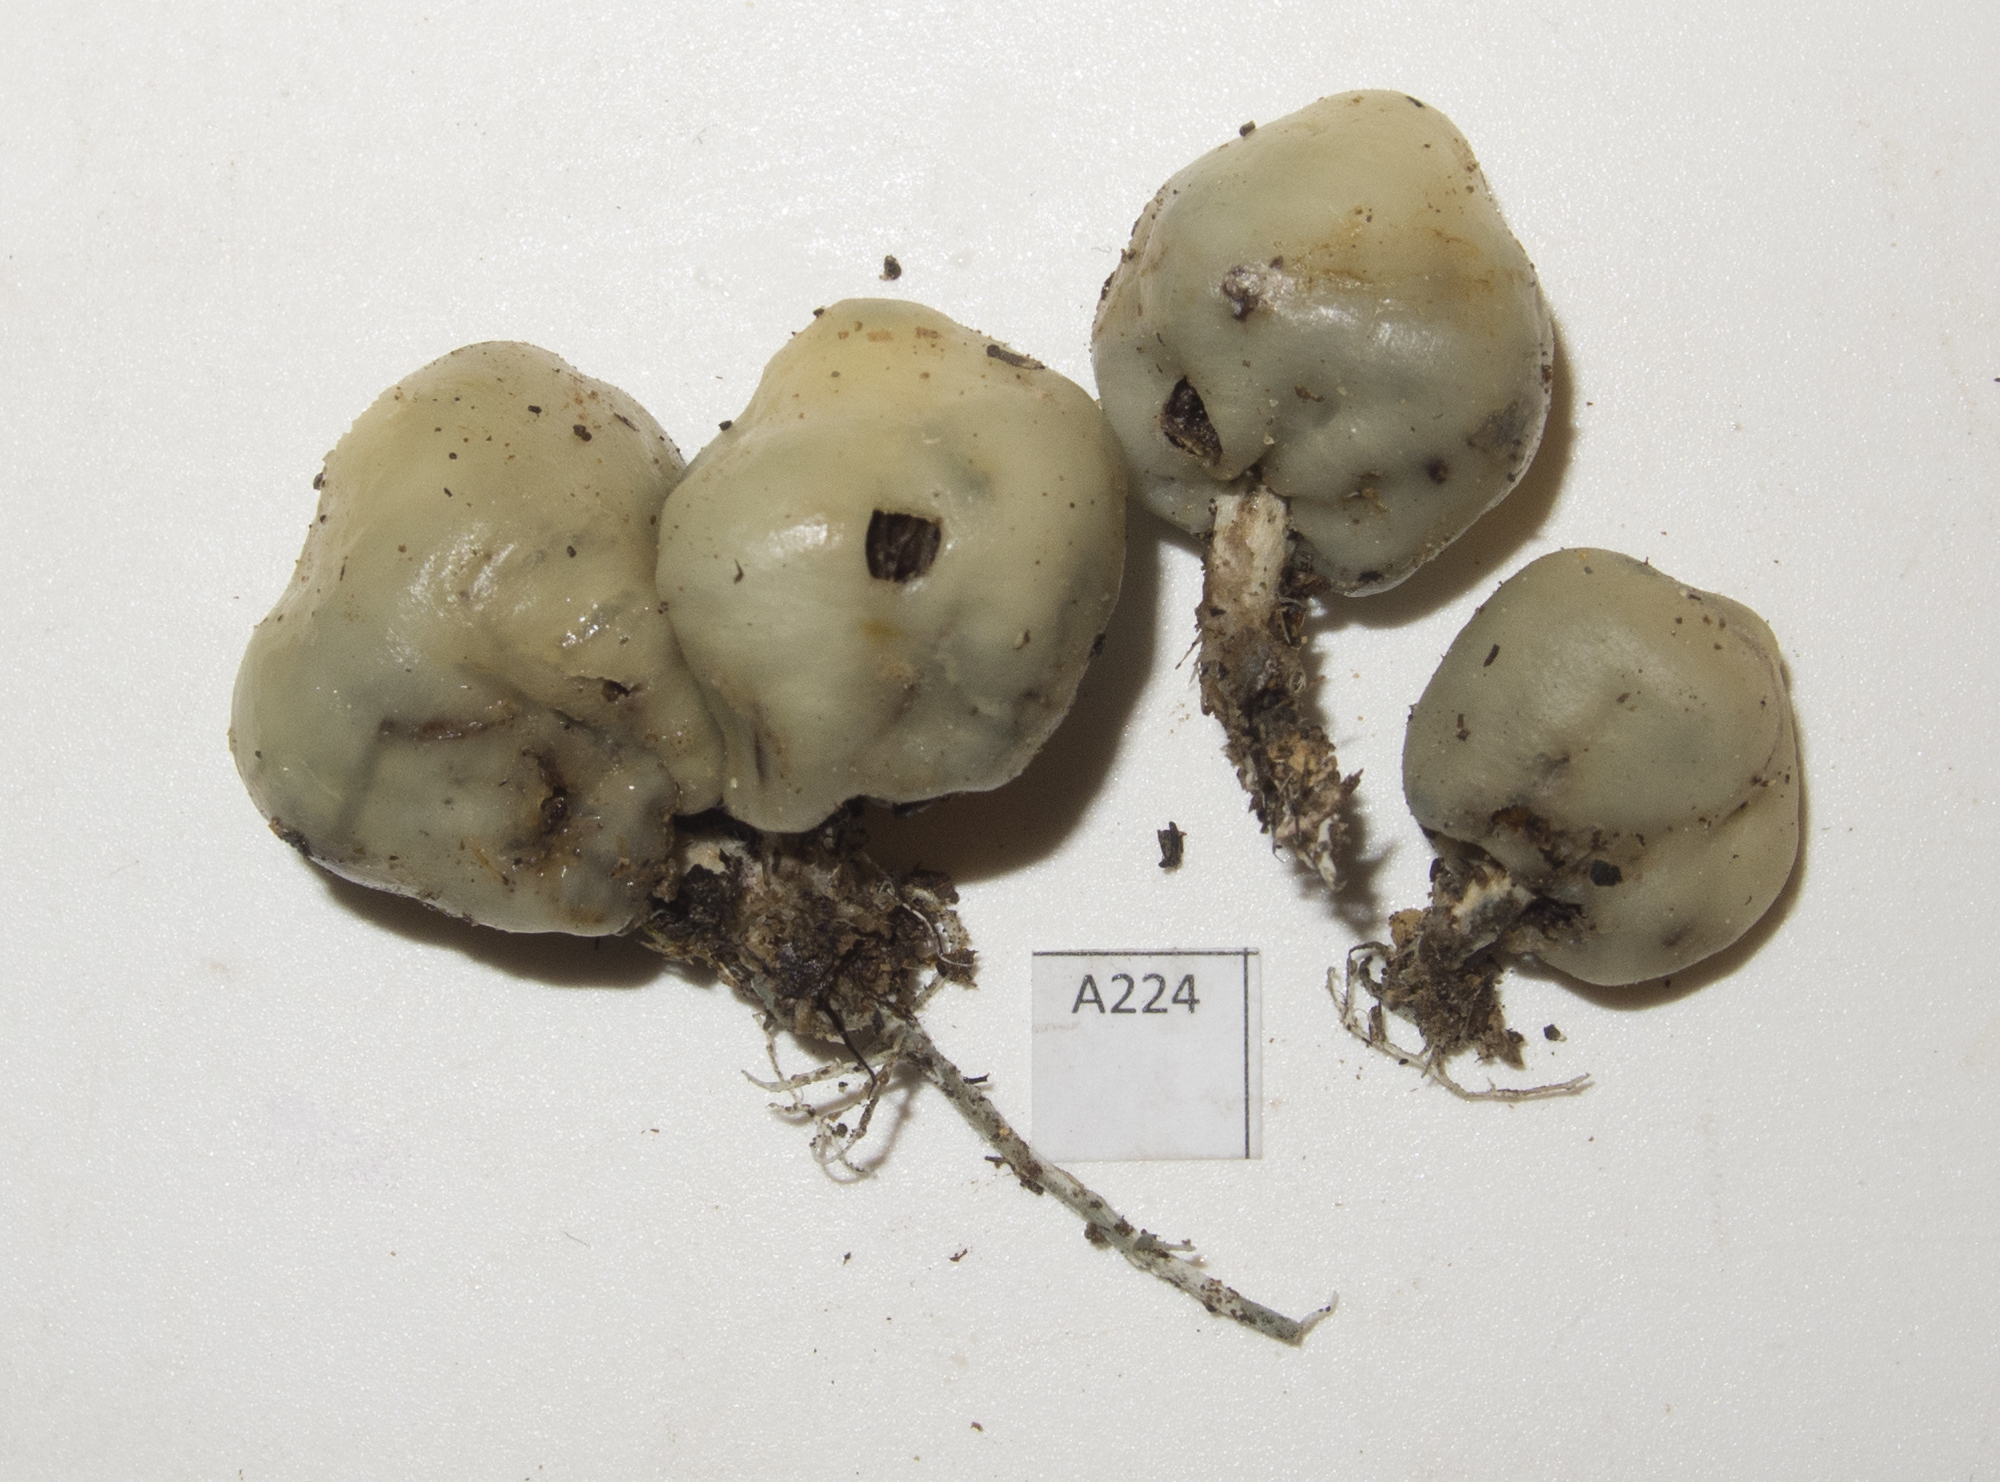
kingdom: Fungi
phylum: Basidiomycota
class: Agaricomycetes
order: Agaricales
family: Hymenogastraceae
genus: Psilocybe
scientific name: Psilocybe weraroa
